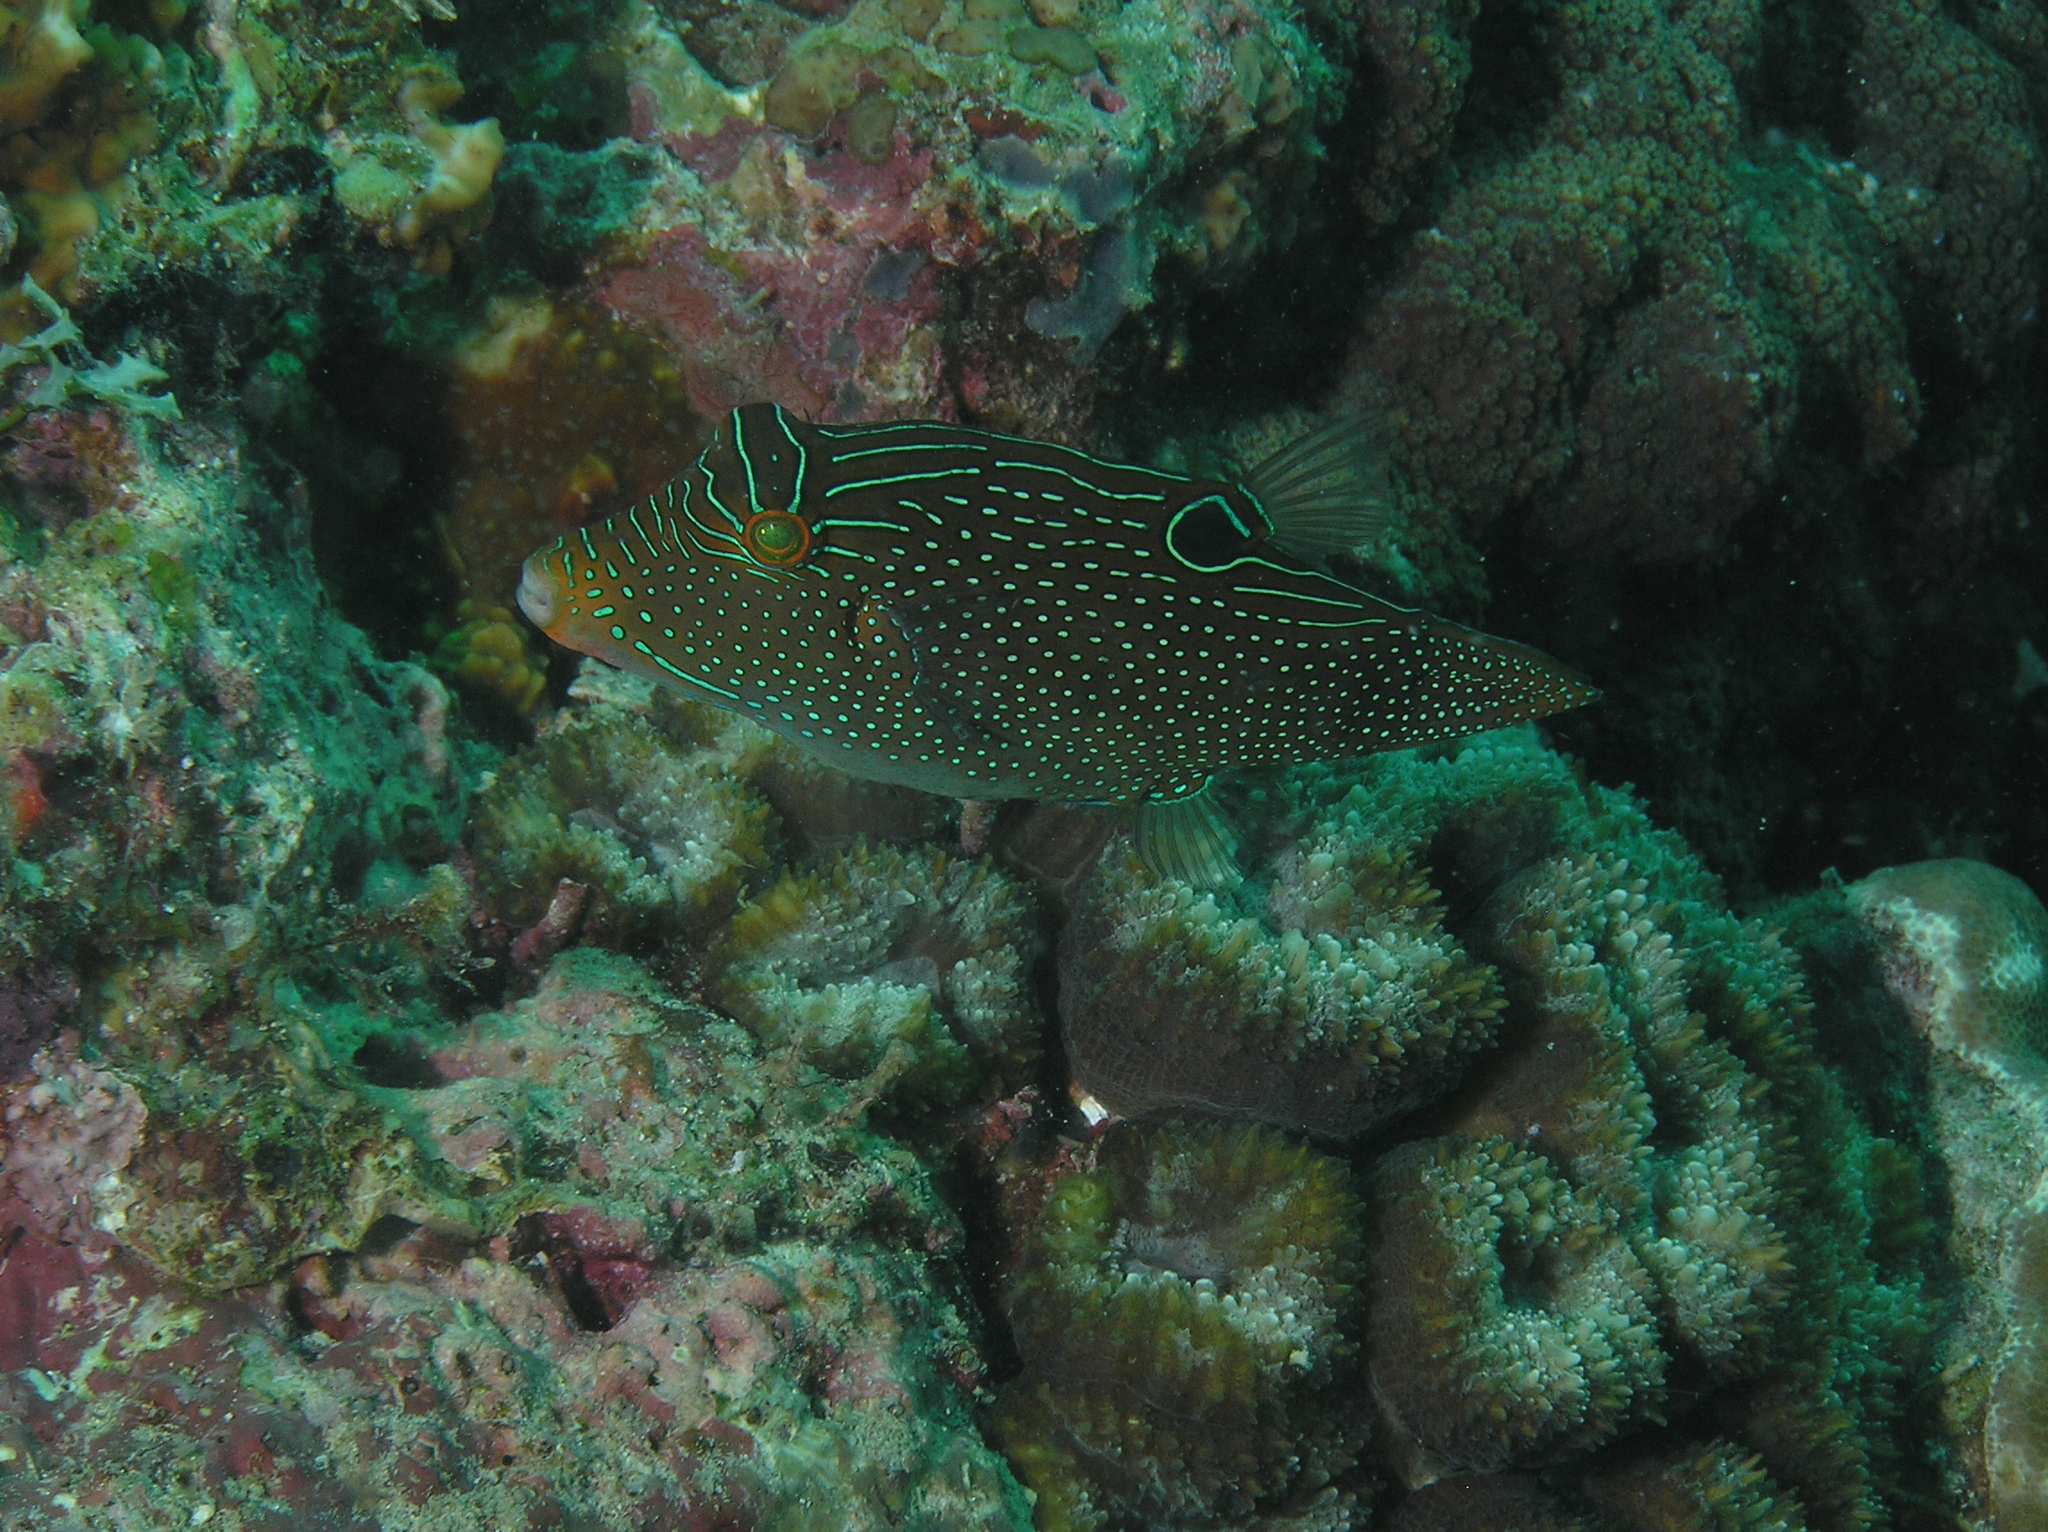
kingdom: Animalia
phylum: Chordata
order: Tetraodontiformes
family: Tetraodontidae
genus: Canthigaster
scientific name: Canthigaster papua
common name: False-eyed pufferfish
